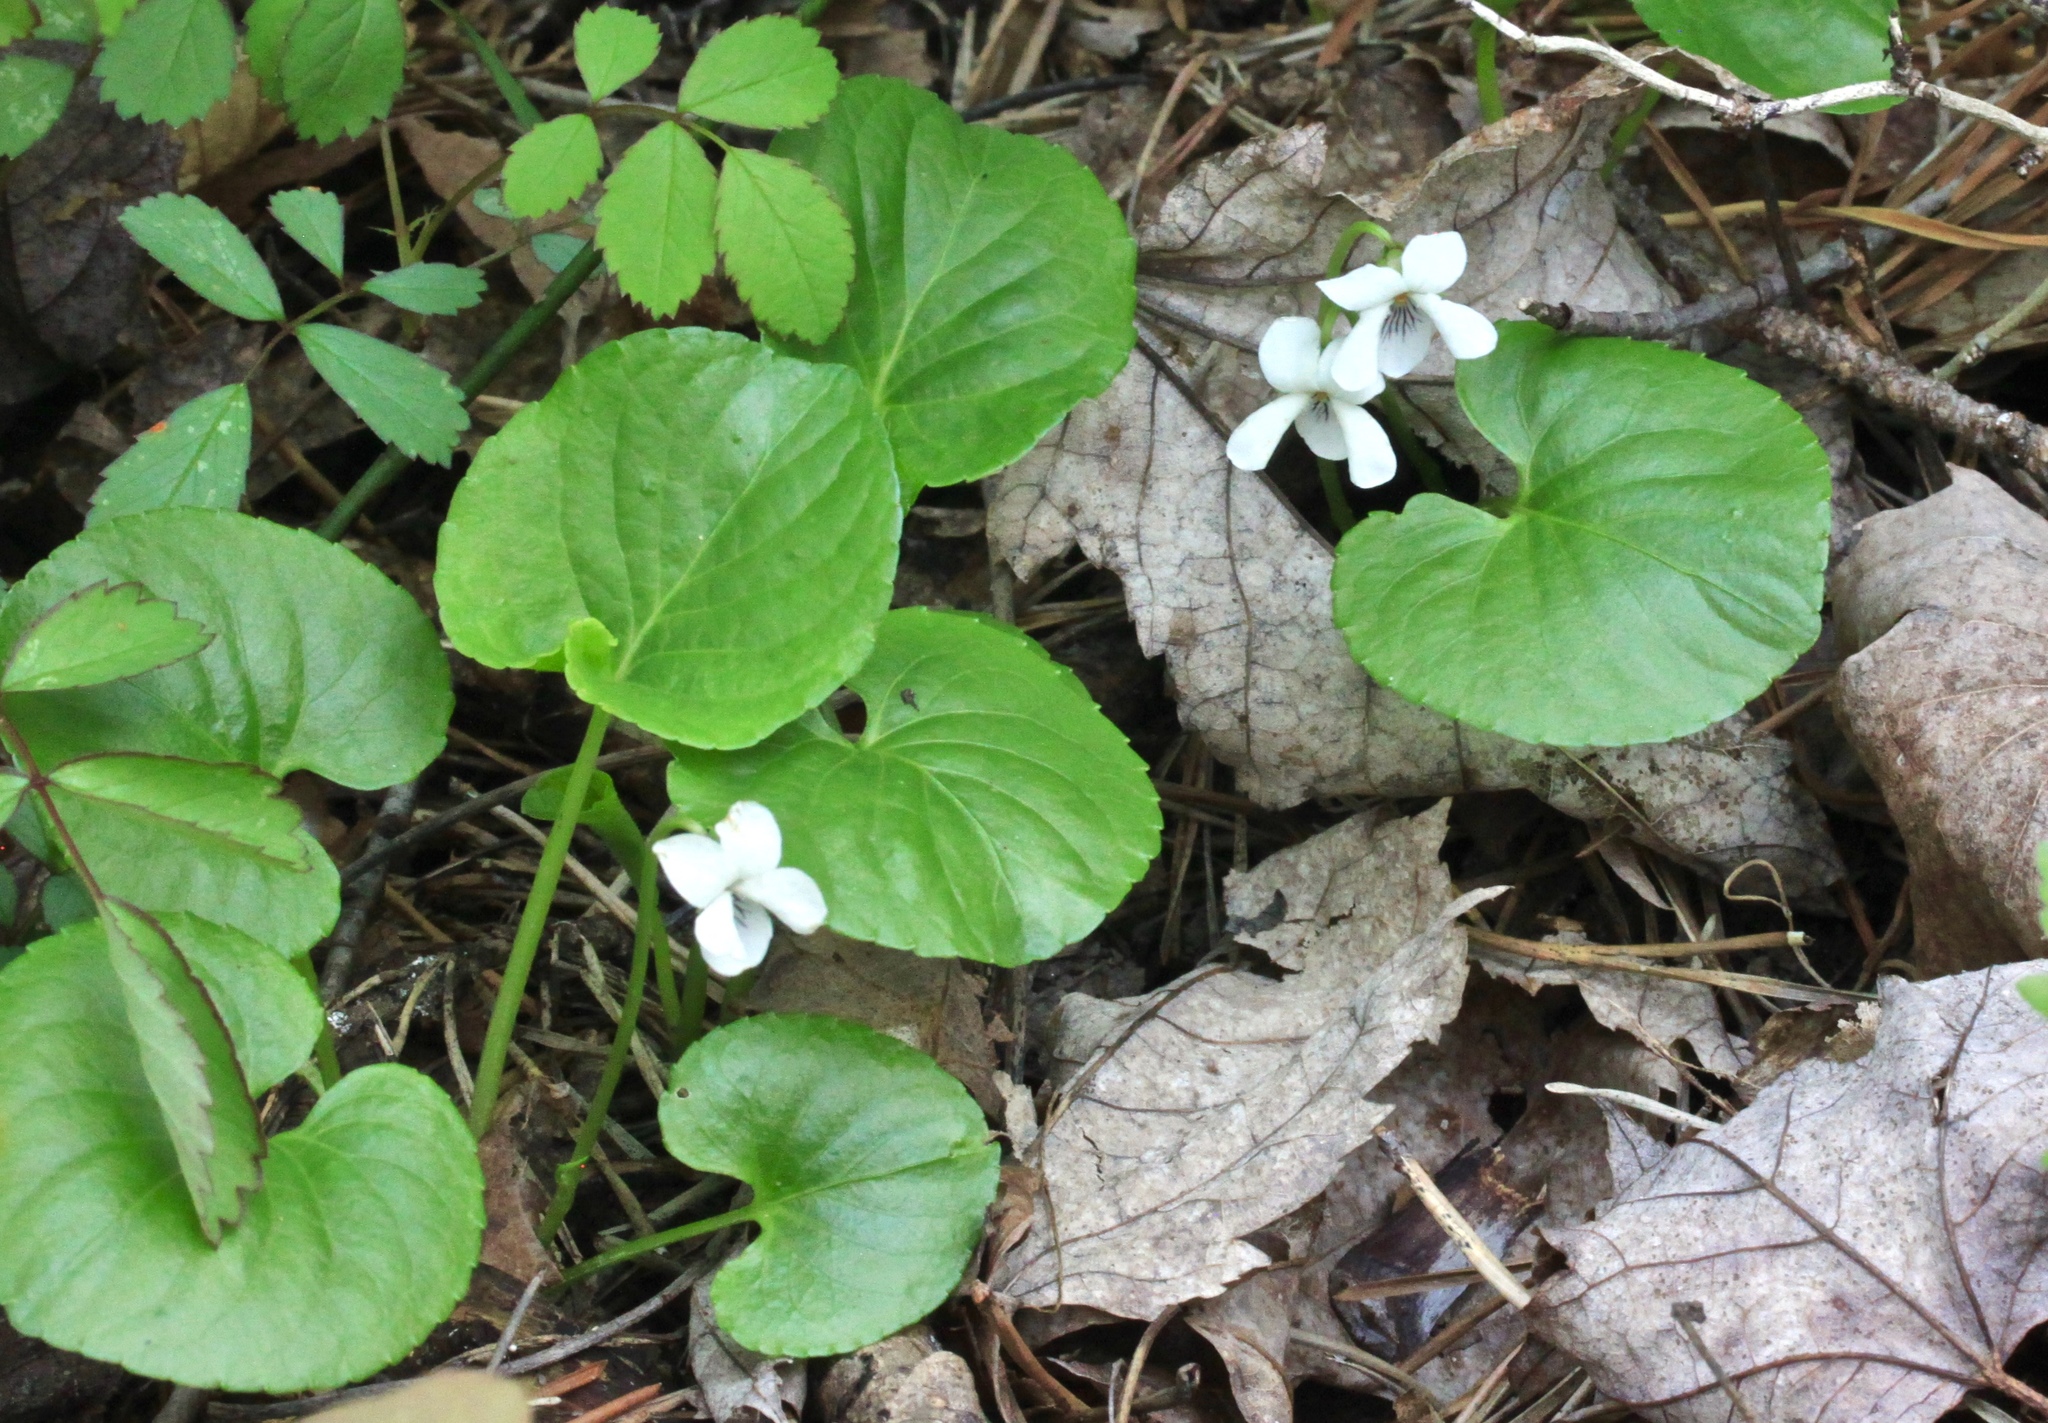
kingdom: Plantae
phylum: Tracheophyta
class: Magnoliopsida
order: Malpighiales
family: Violaceae
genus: Viola
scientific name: Viola minuscula
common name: Northern white violet
